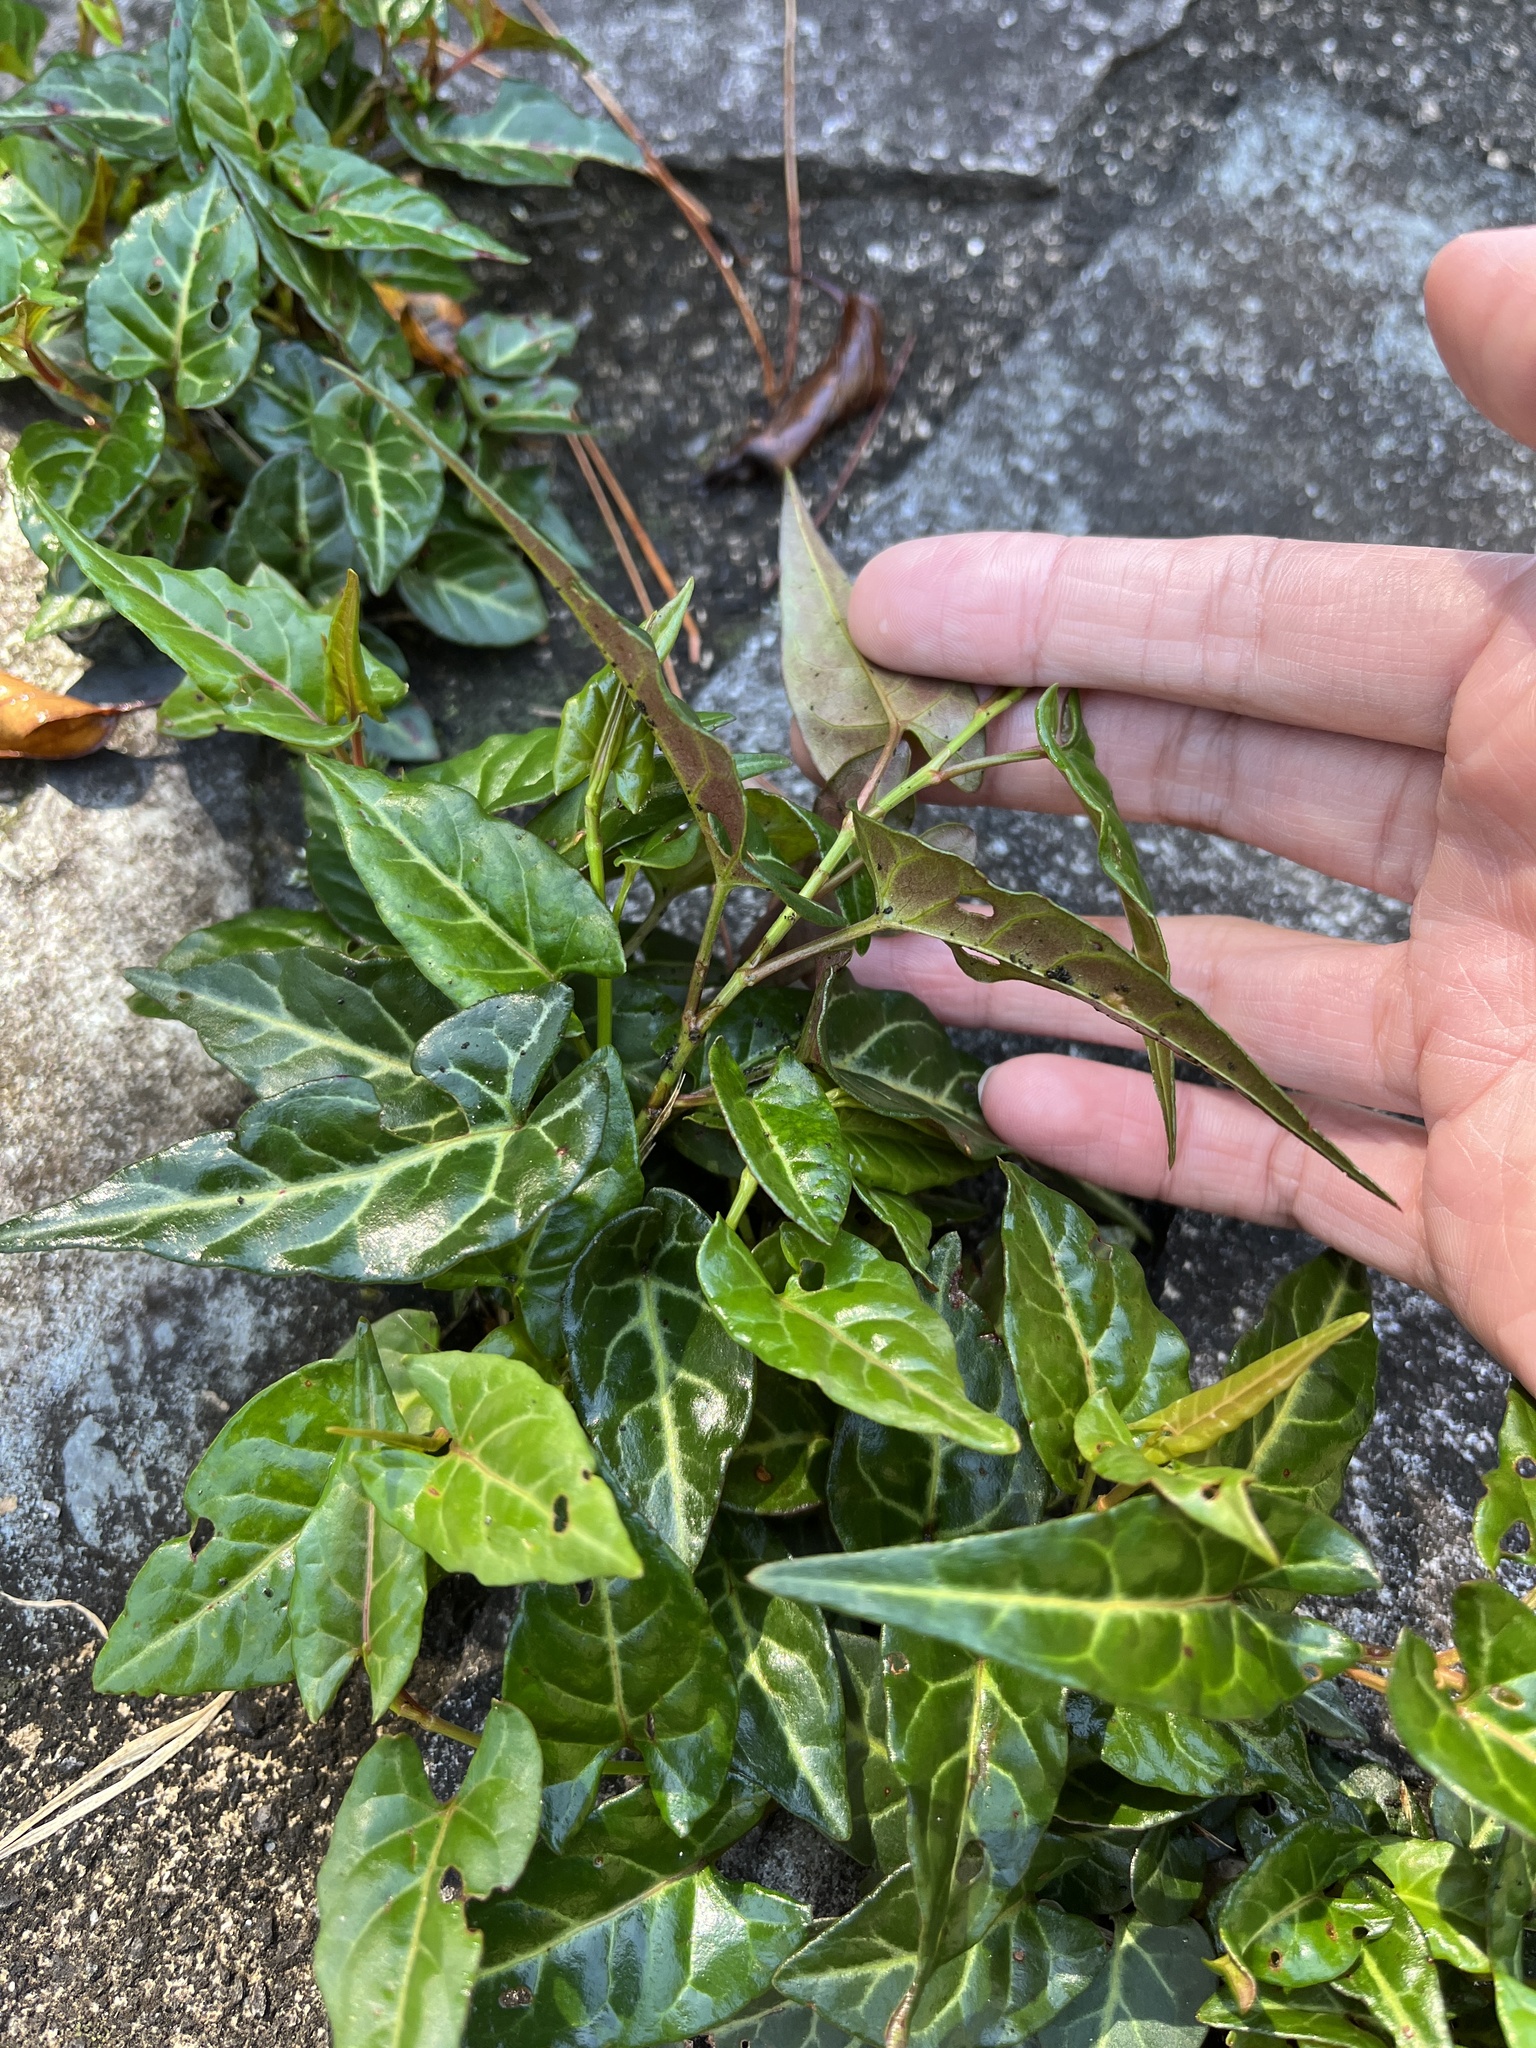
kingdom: Plantae
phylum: Tracheophyta
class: Magnoliopsida
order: Caryophyllales
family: Polygonaceae
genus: Reynoutria
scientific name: Reynoutria multiflora
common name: Chinese fleeceflower
